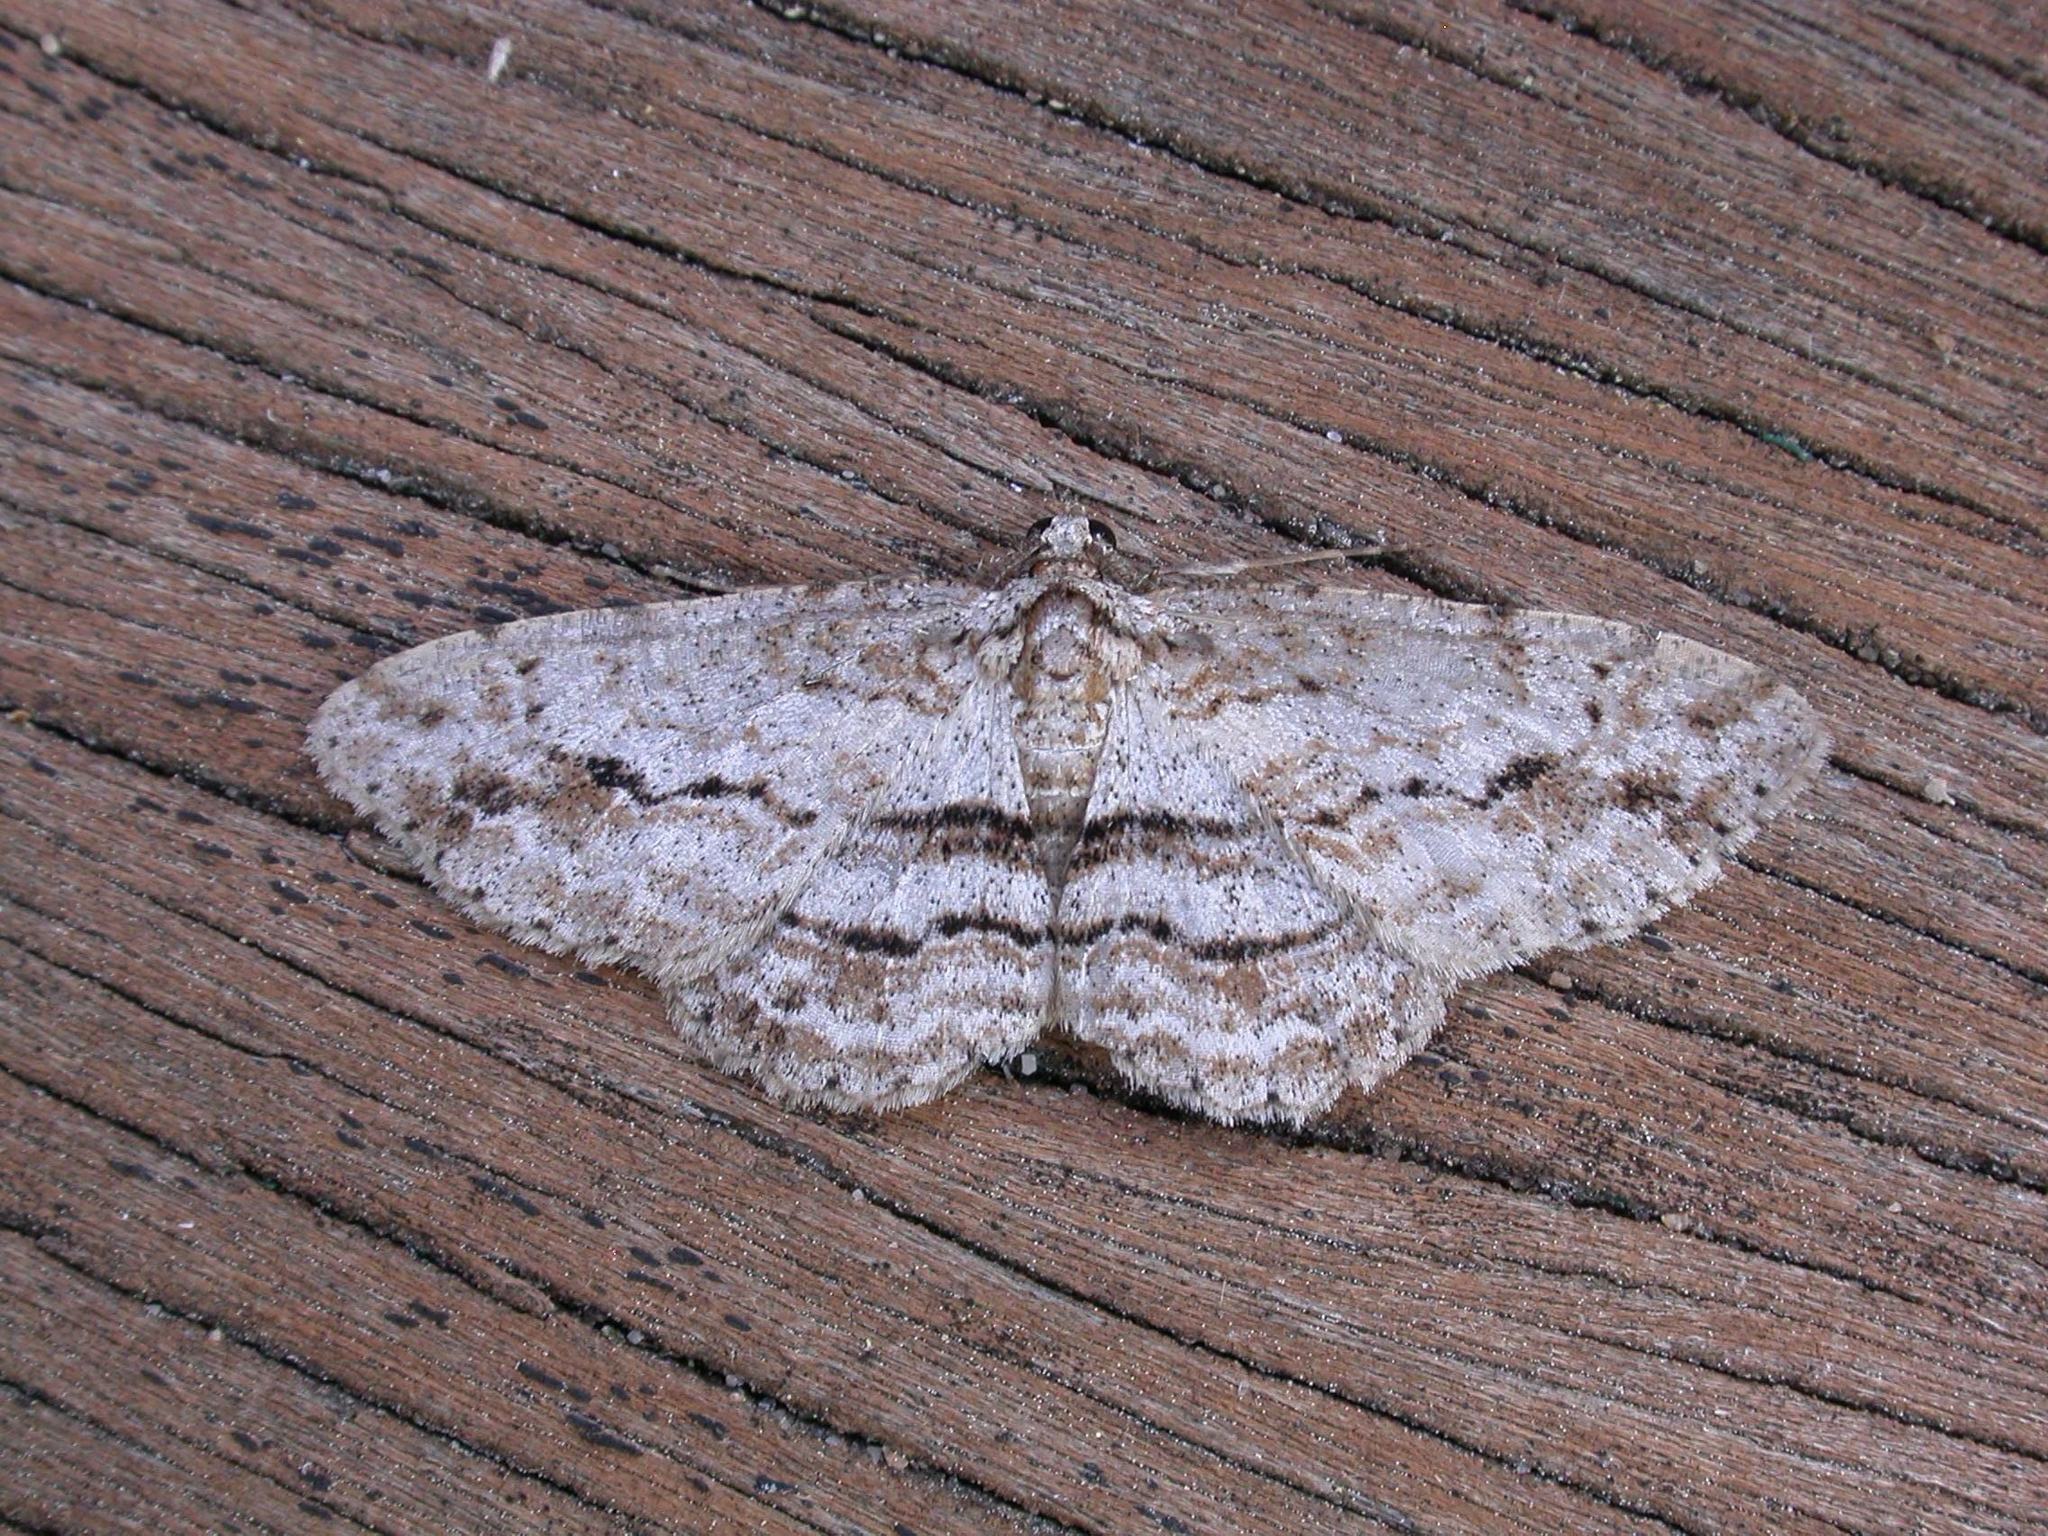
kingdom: Animalia
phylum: Arthropoda
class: Insecta
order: Lepidoptera
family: Geometridae
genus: Didymoctenia
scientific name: Didymoctenia exsuperata
